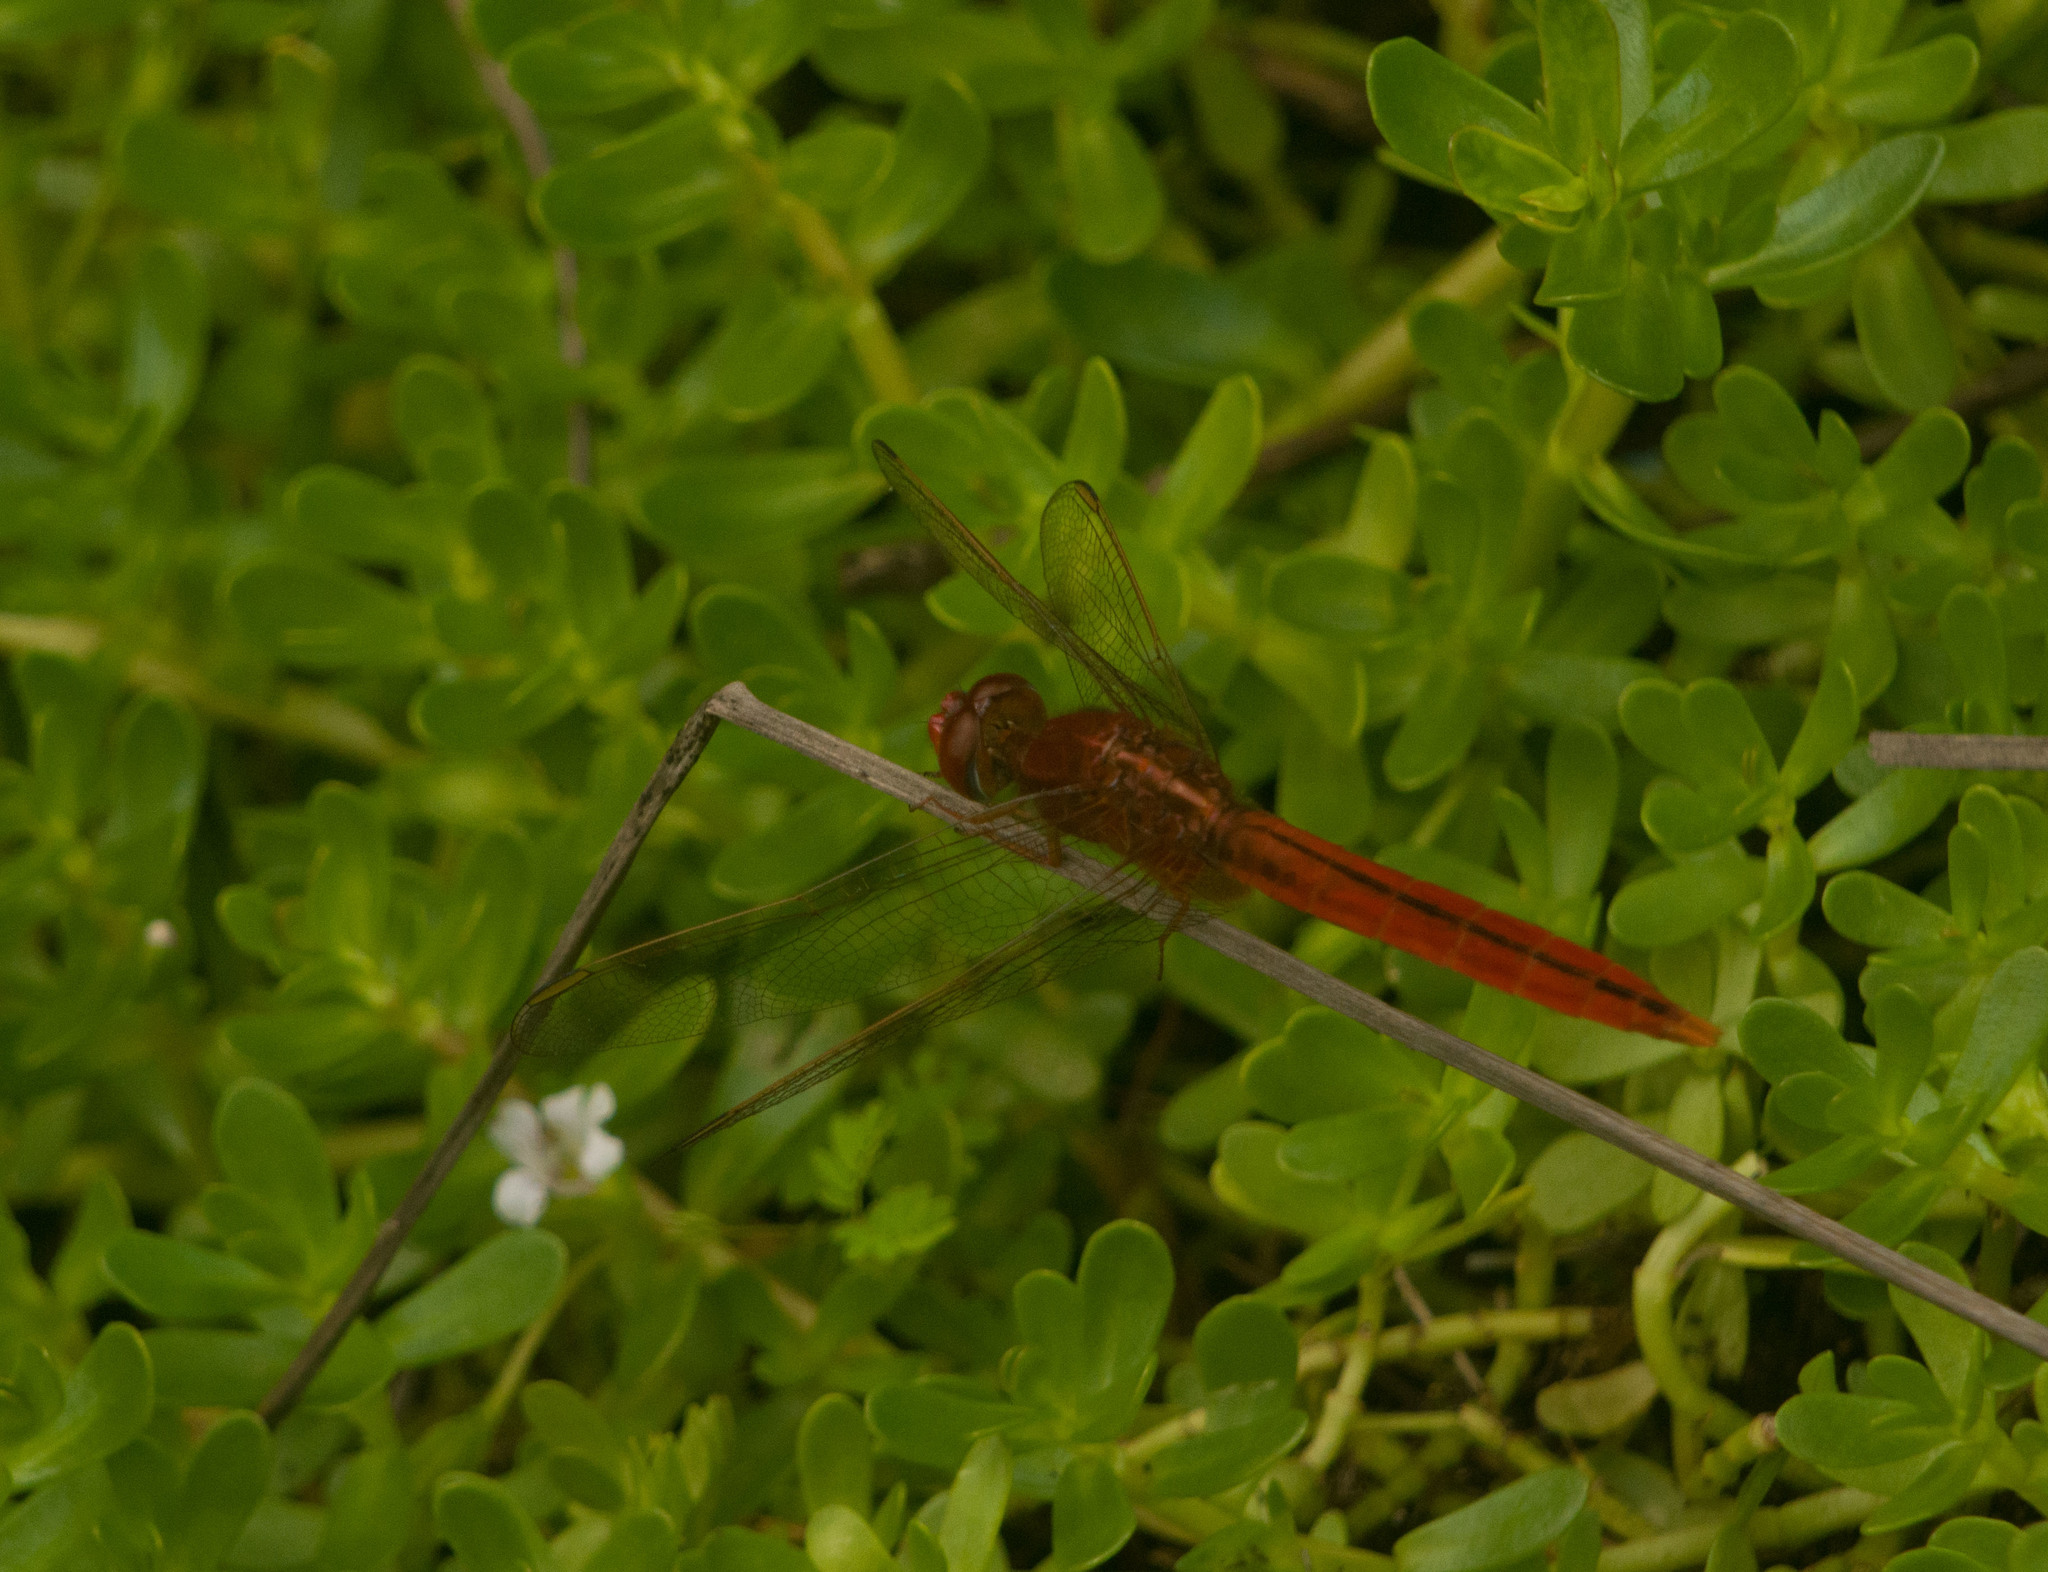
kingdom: Animalia
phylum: Arthropoda
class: Insecta
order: Odonata
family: Libellulidae
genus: Crocothemis
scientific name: Crocothemis servilia
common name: Scarlet skimmer
